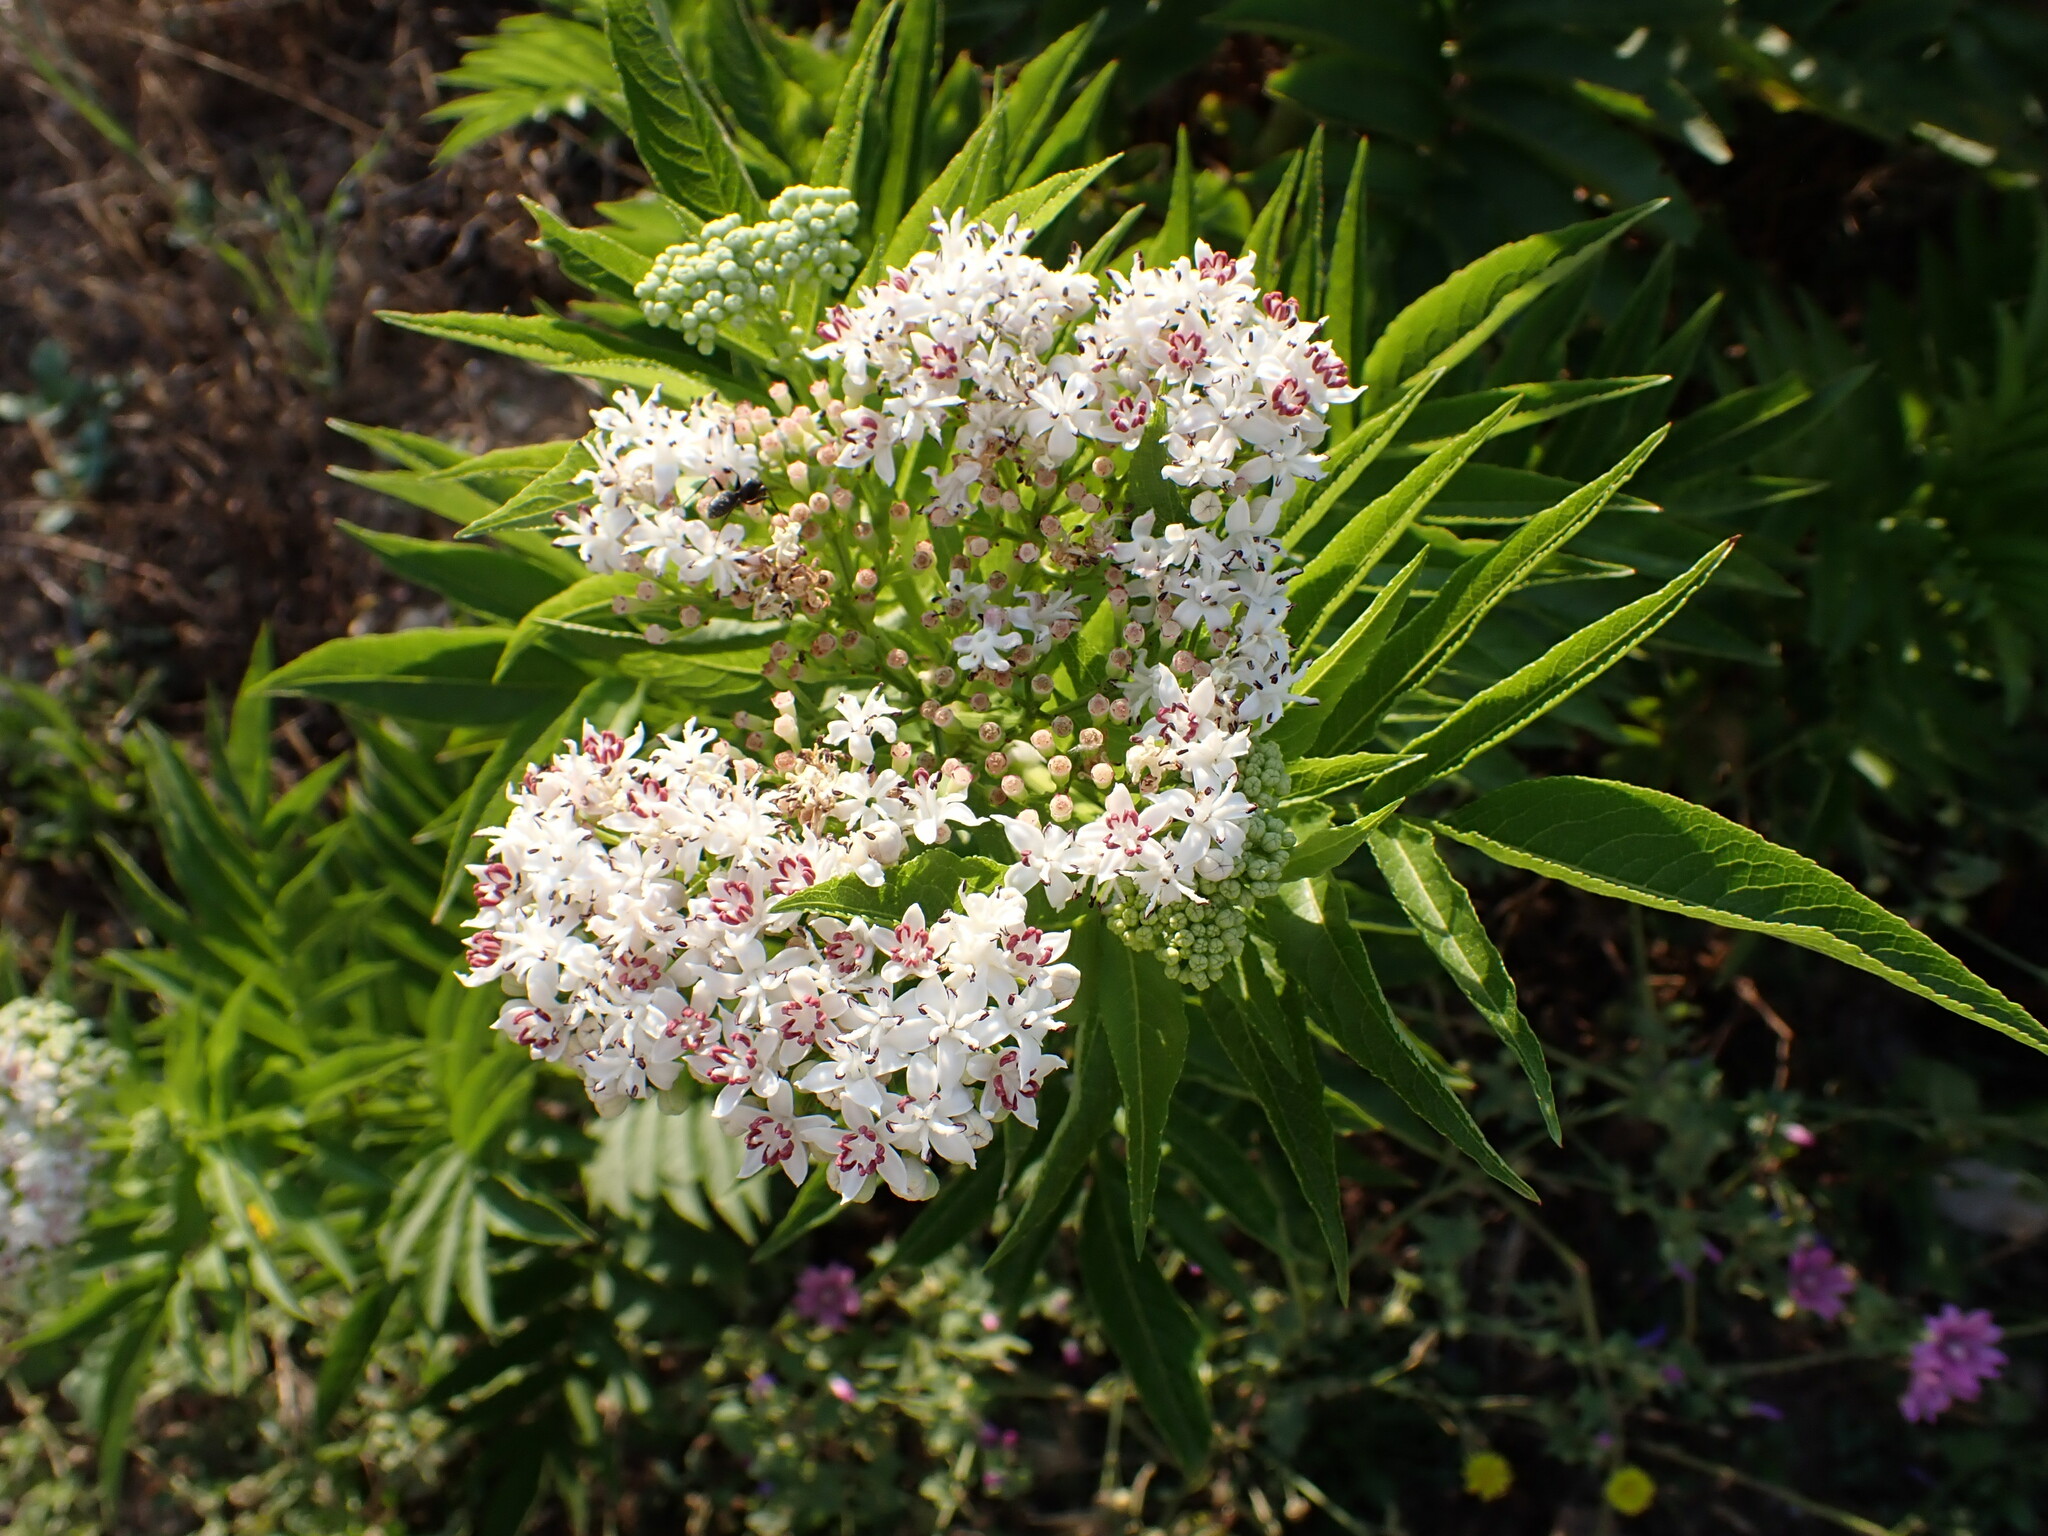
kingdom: Plantae
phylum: Tracheophyta
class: Magnoliopsida
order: Dipsacales
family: Viburnaceae
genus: Sambucus
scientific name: Sambucus ebulus
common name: Dwarf elder
